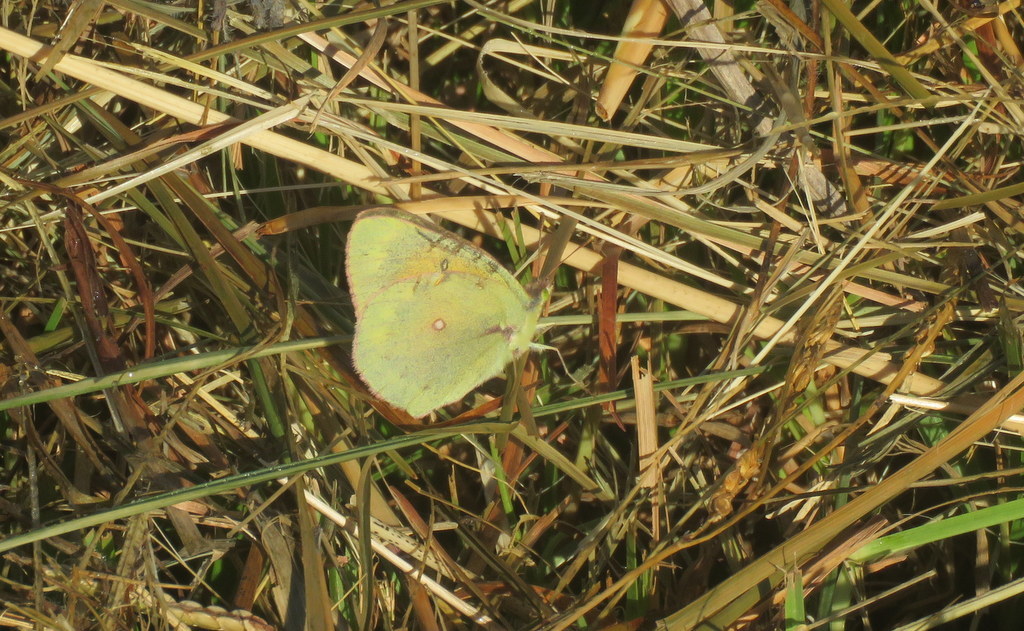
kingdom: Animalia
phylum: Arthropoda
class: Insecta
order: Lepidoptera
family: Pieridae
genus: Colias
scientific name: Colias lesbia
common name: Lesbia clouded yellow
